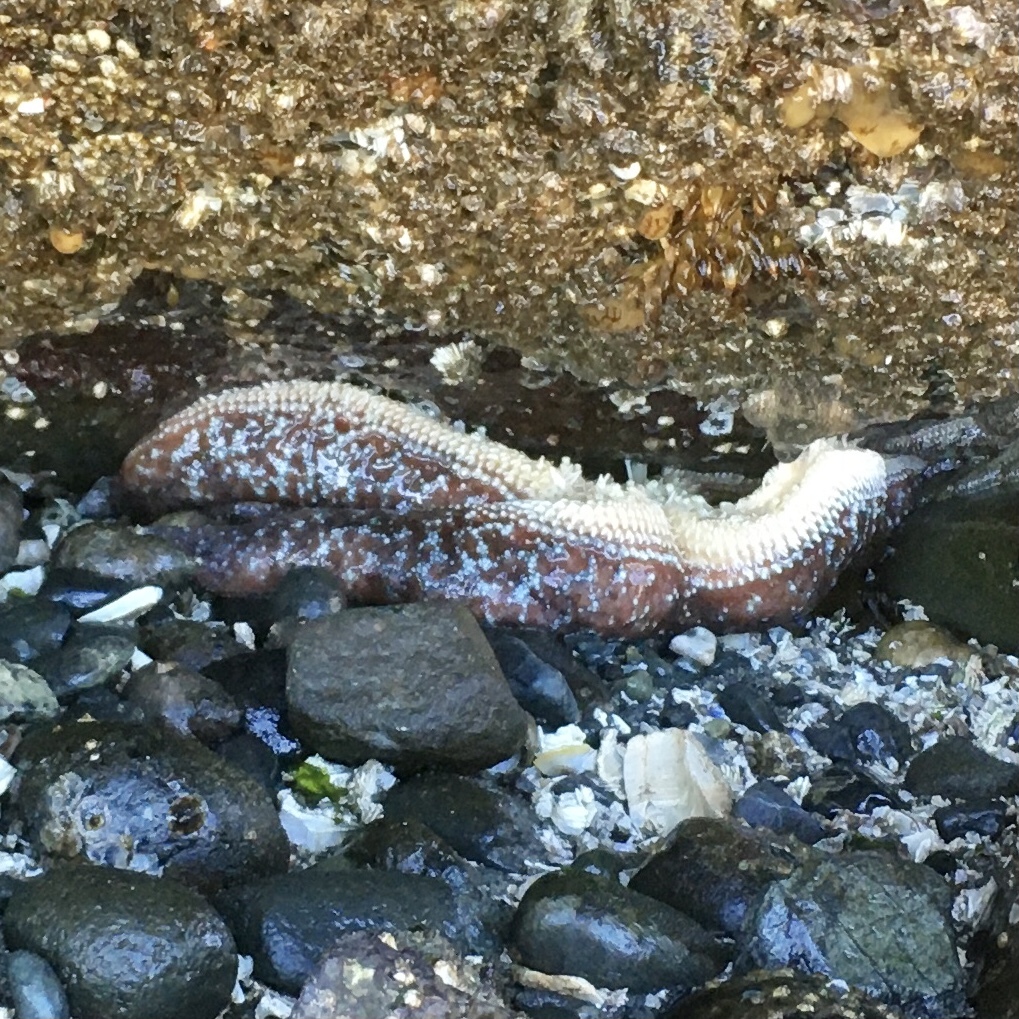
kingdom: Animalia
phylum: Echinodermata
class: Asteroidea
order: Forcipulatida
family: Asteriidae
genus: Evasterias
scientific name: Evasterias troschelii
